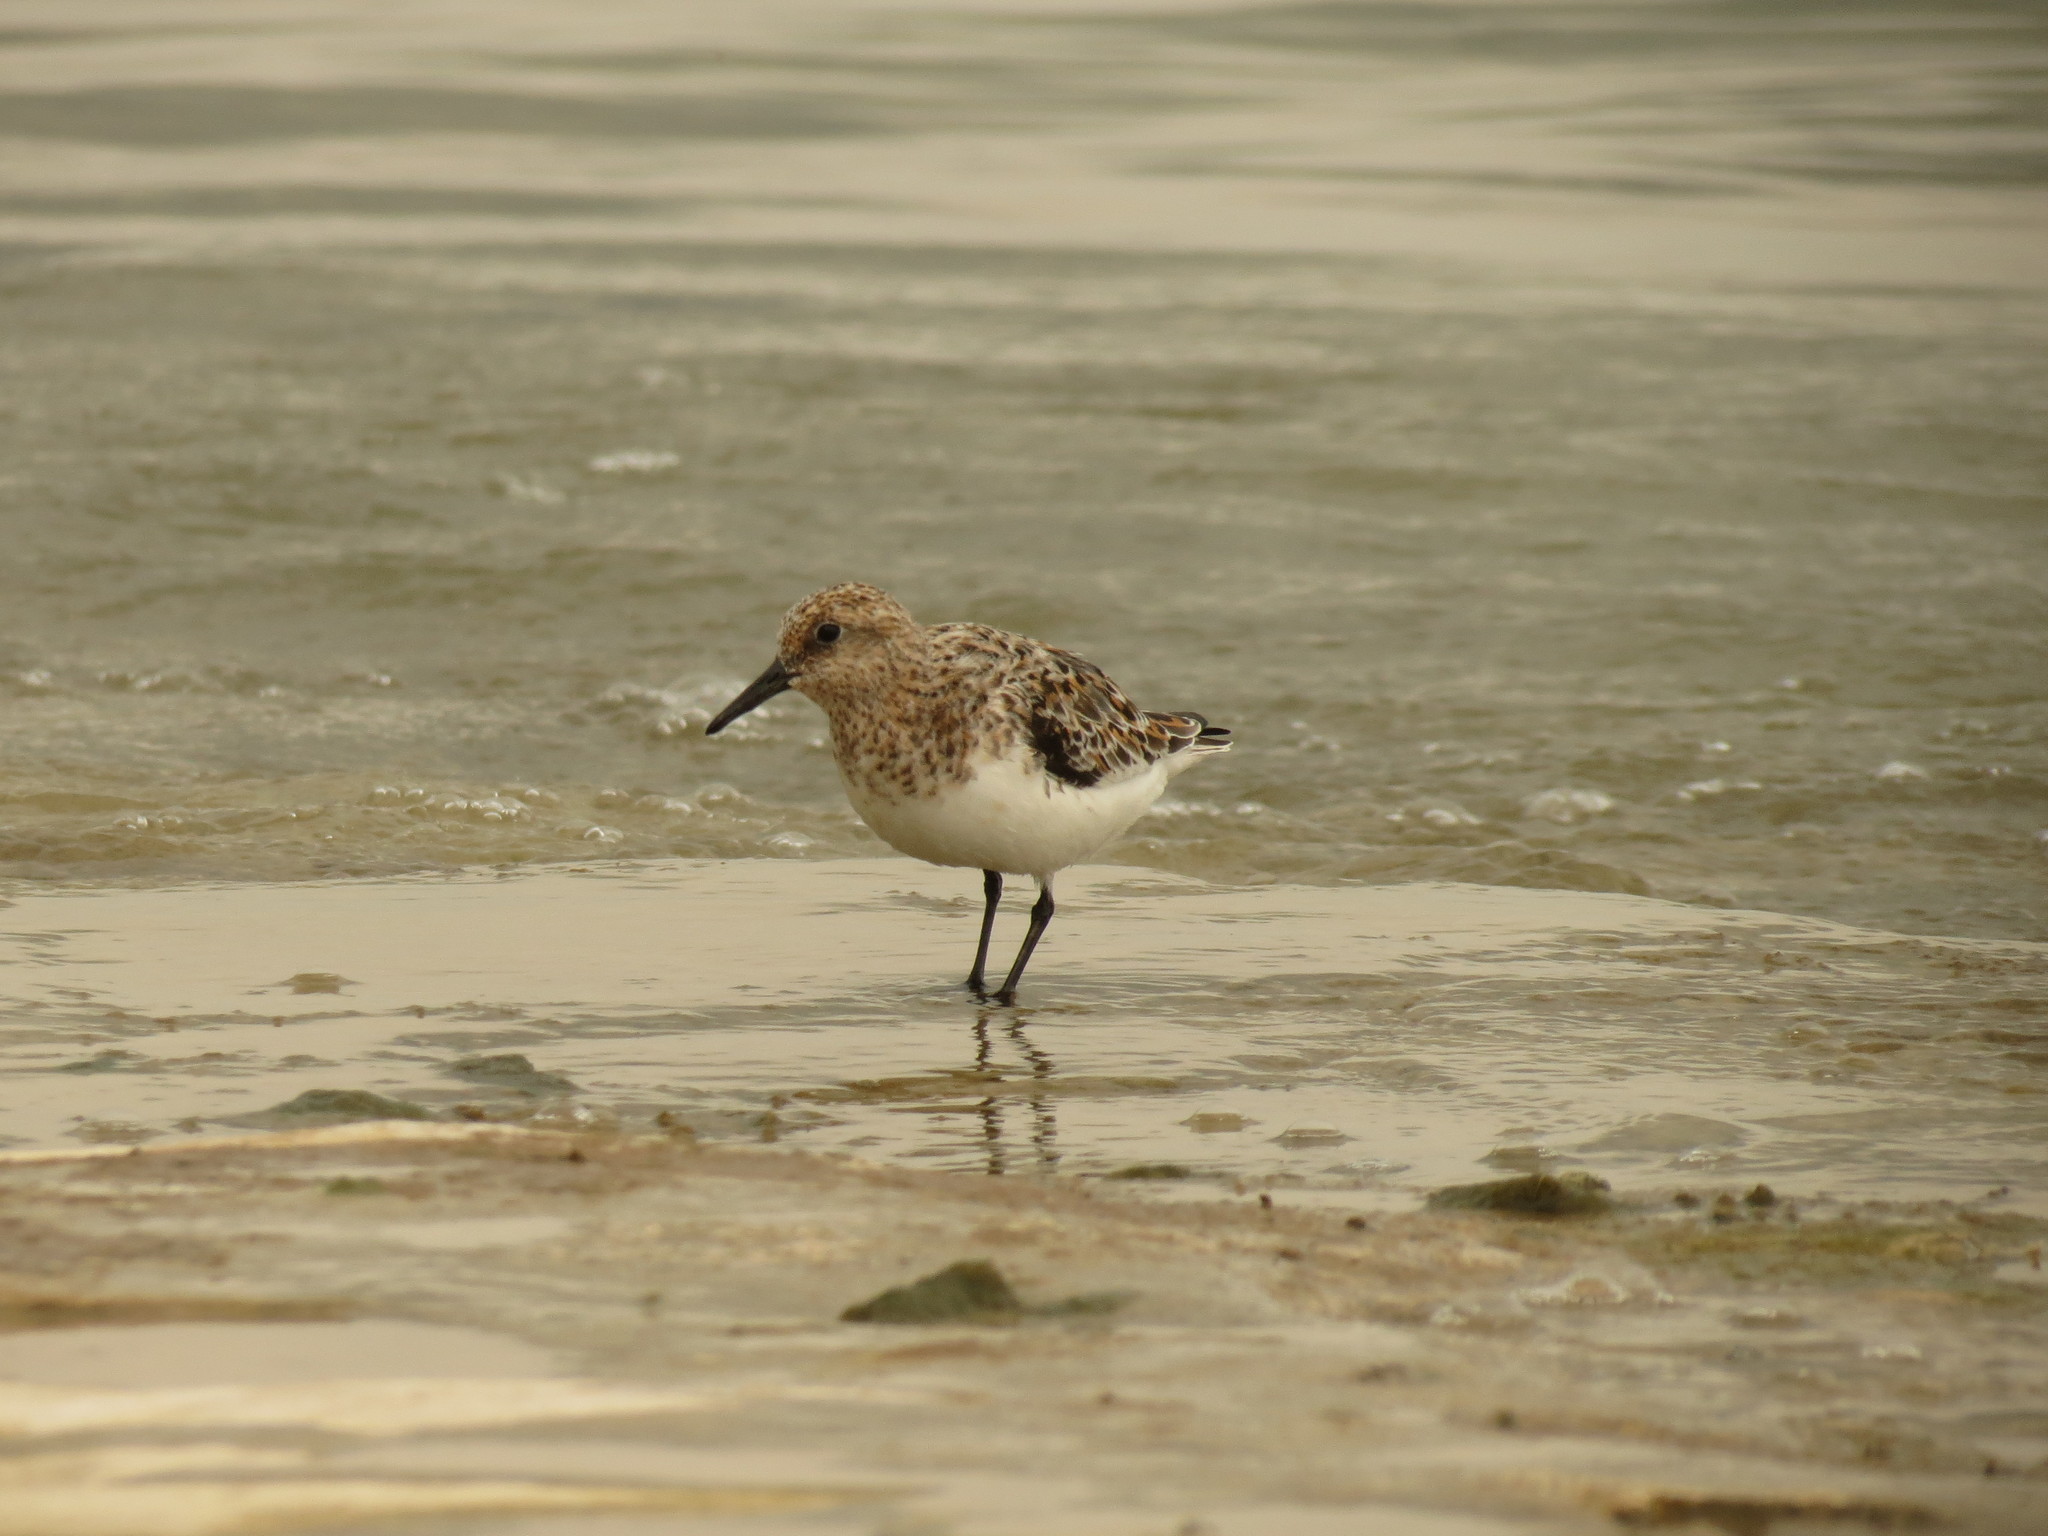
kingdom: Animalia
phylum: Chordata
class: Aves
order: Charadriiformes
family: Scolopacidae
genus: Calidris
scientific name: Calidris alba
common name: Sanderling
